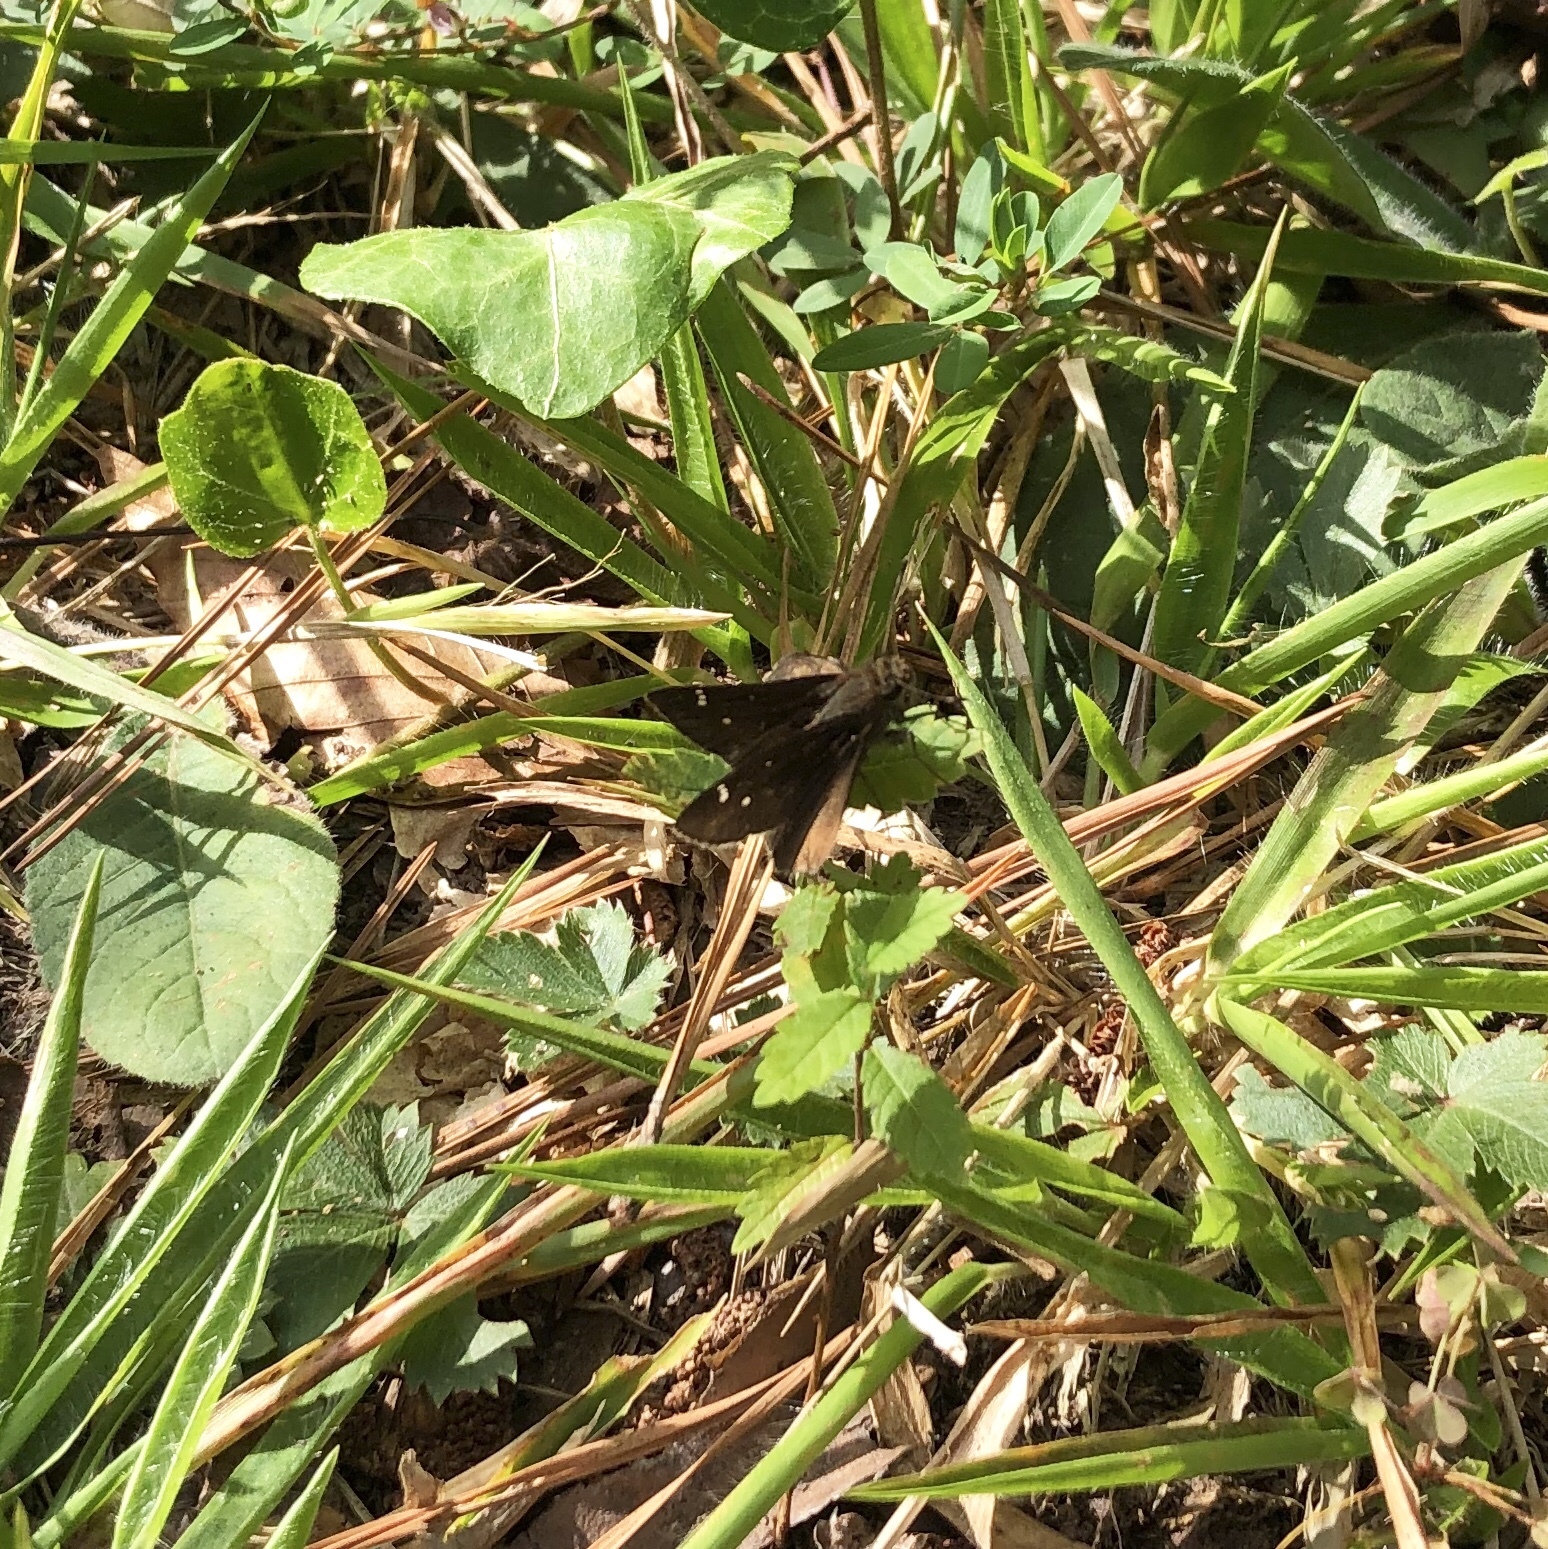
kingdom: Animalia
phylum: Arthropoda
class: Insecta
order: Lepidoptera
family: Hesperiidae
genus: Lerema
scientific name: Lerema accius
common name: Clouded skipper
